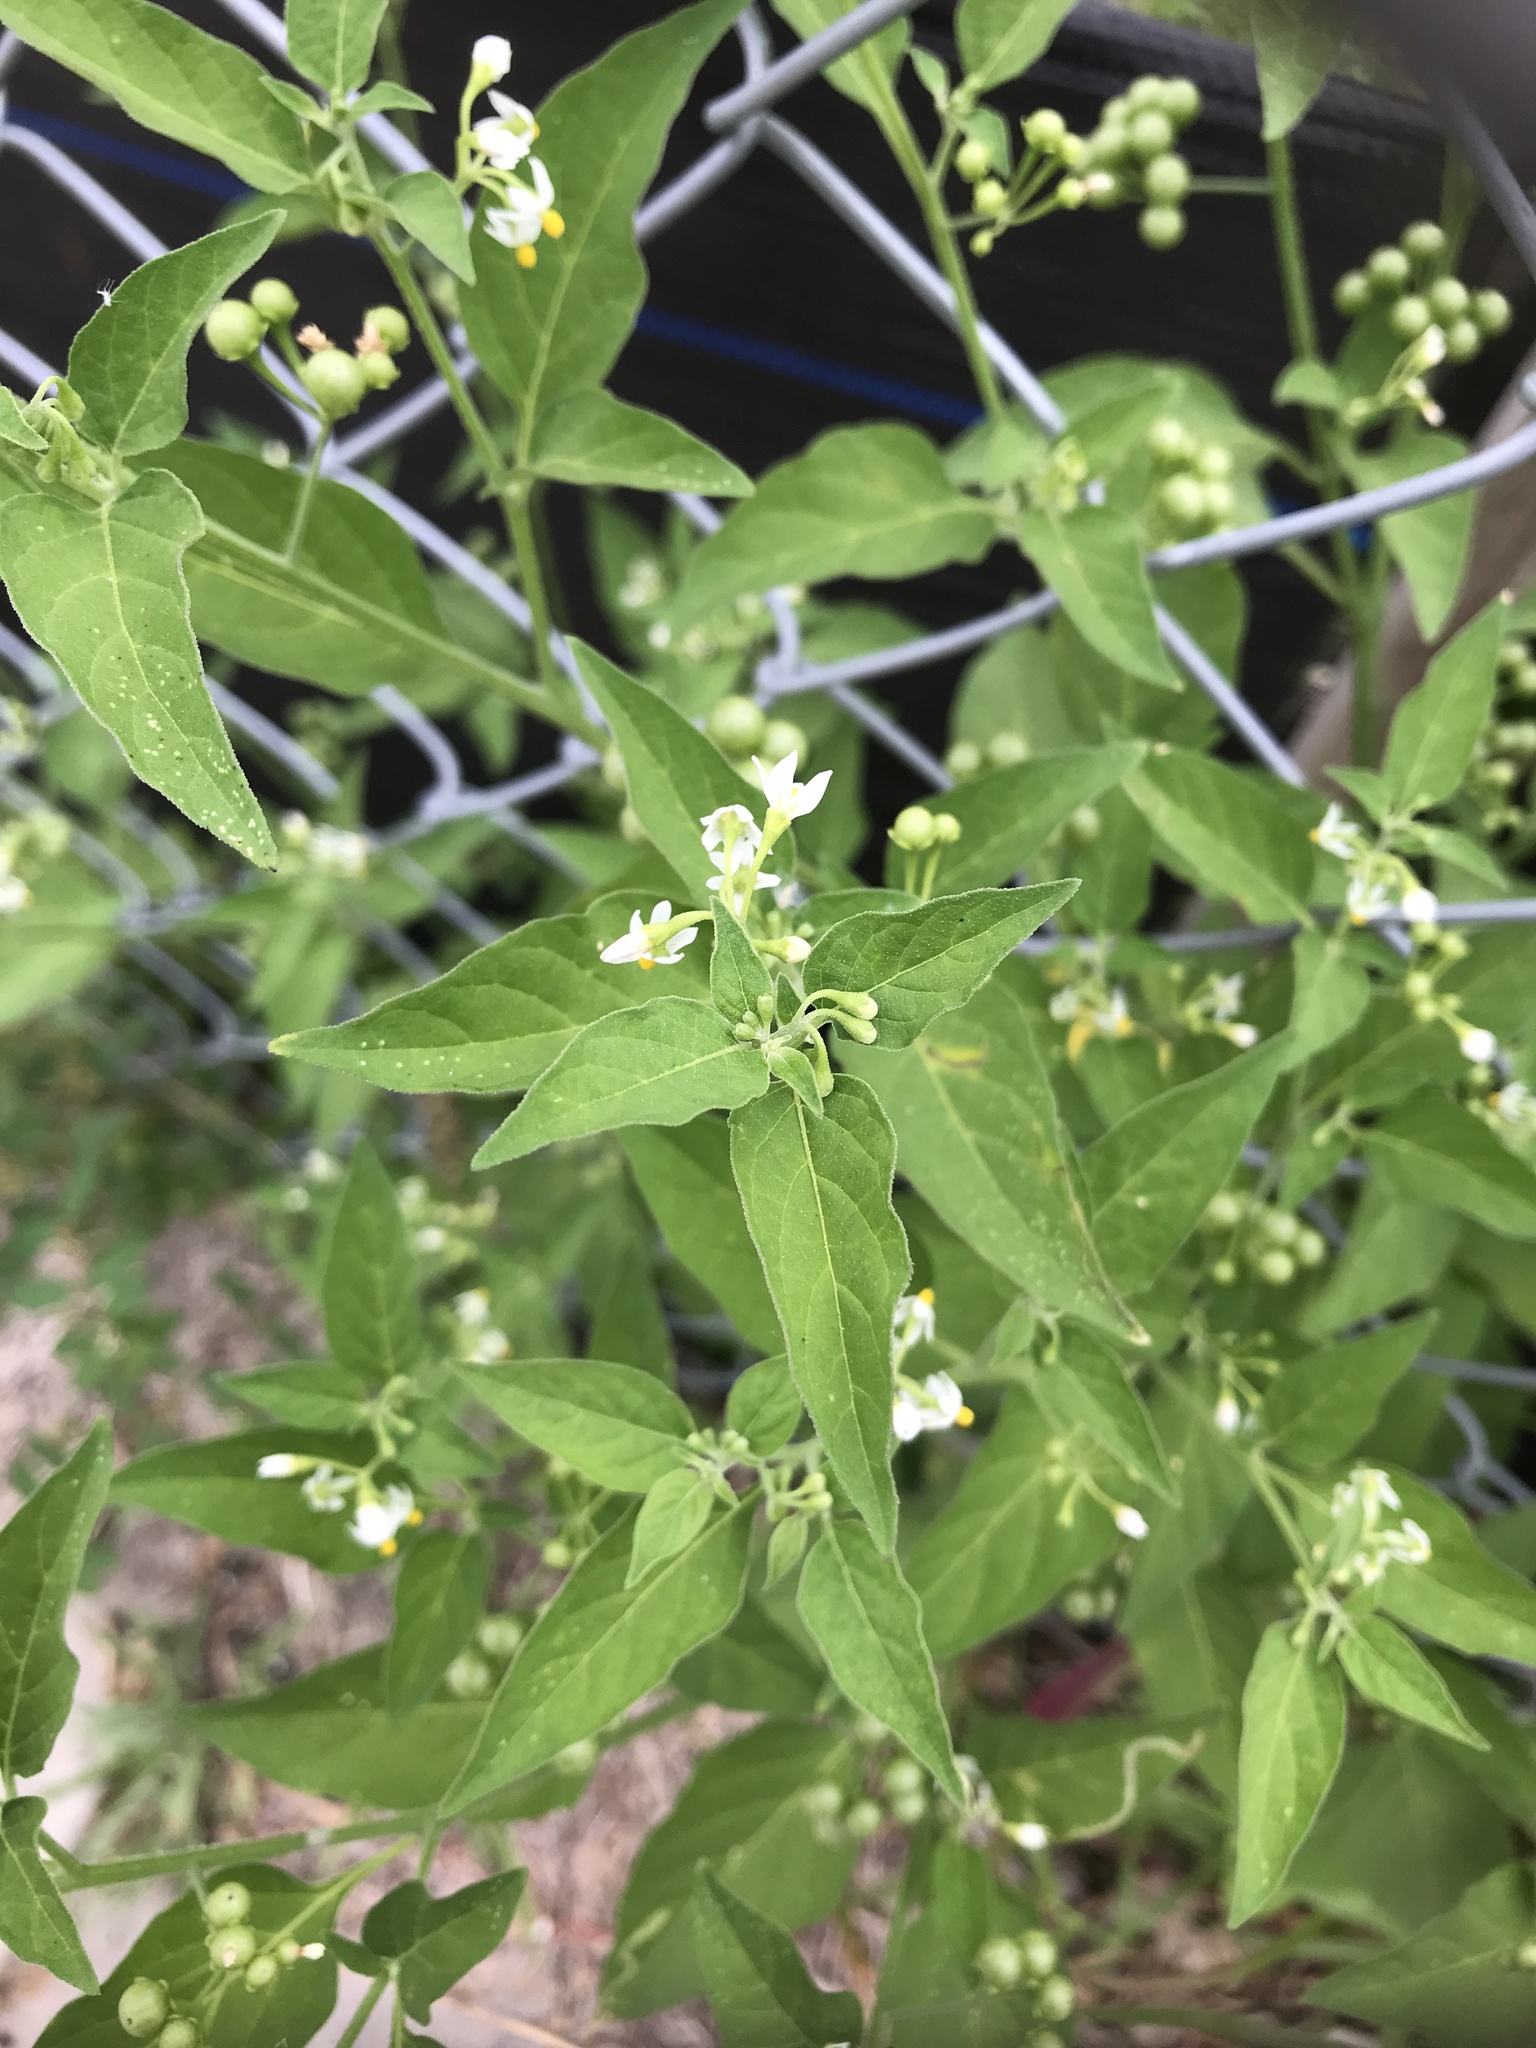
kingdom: Plantae
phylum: Tracheophyta
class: Magnoliopsida
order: Solanales
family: Solanaceae
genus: Solanum
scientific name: Solanum americanum
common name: American black nightshade
